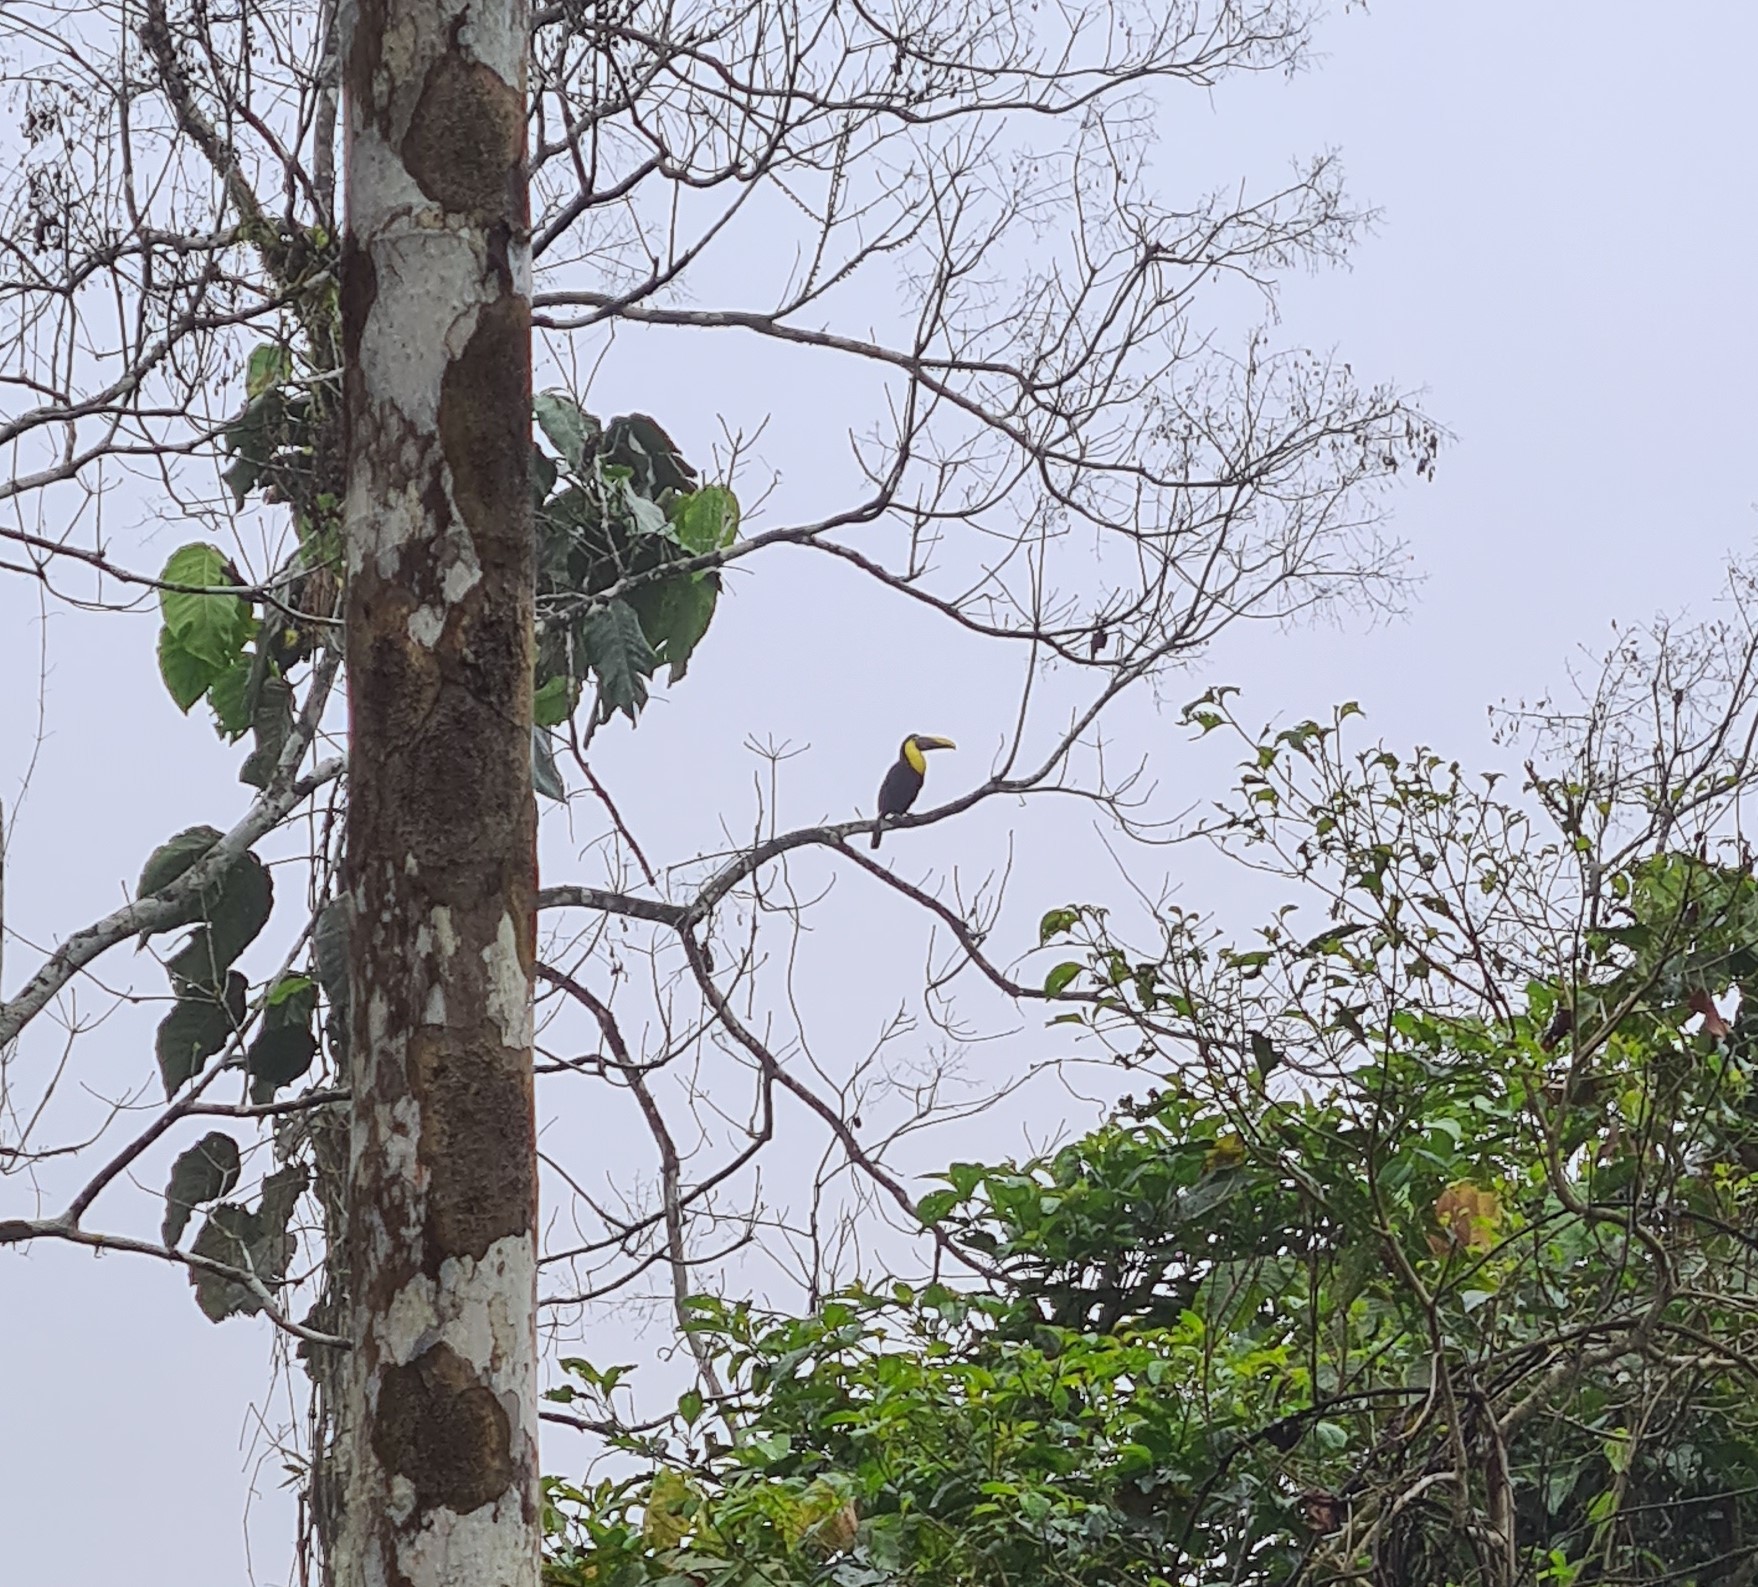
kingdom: Animalia
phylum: Chordata
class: Aves
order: Piciformes
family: Ramphastidae
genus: Ramphastos
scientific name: Ramphastos ambiguus
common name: Yellow-throated toucan
